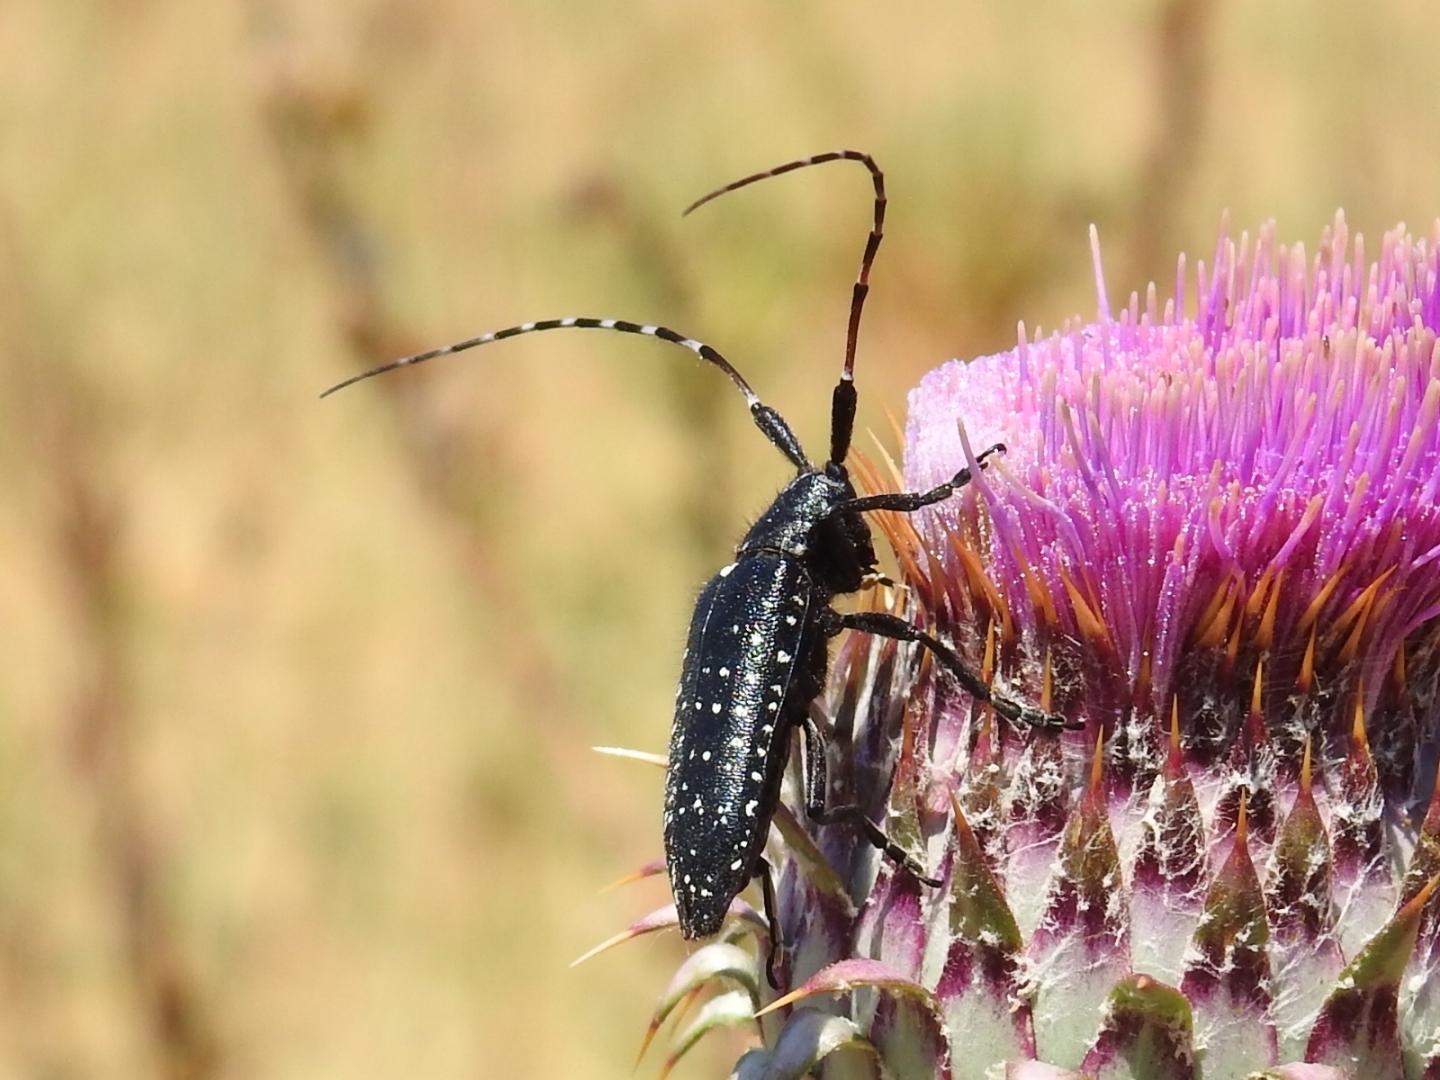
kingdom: Animalia
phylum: Arthropoda
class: Insecta
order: Coleoptera
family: Cerambycidae
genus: Agapanthia
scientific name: Agapanthia irrorata
